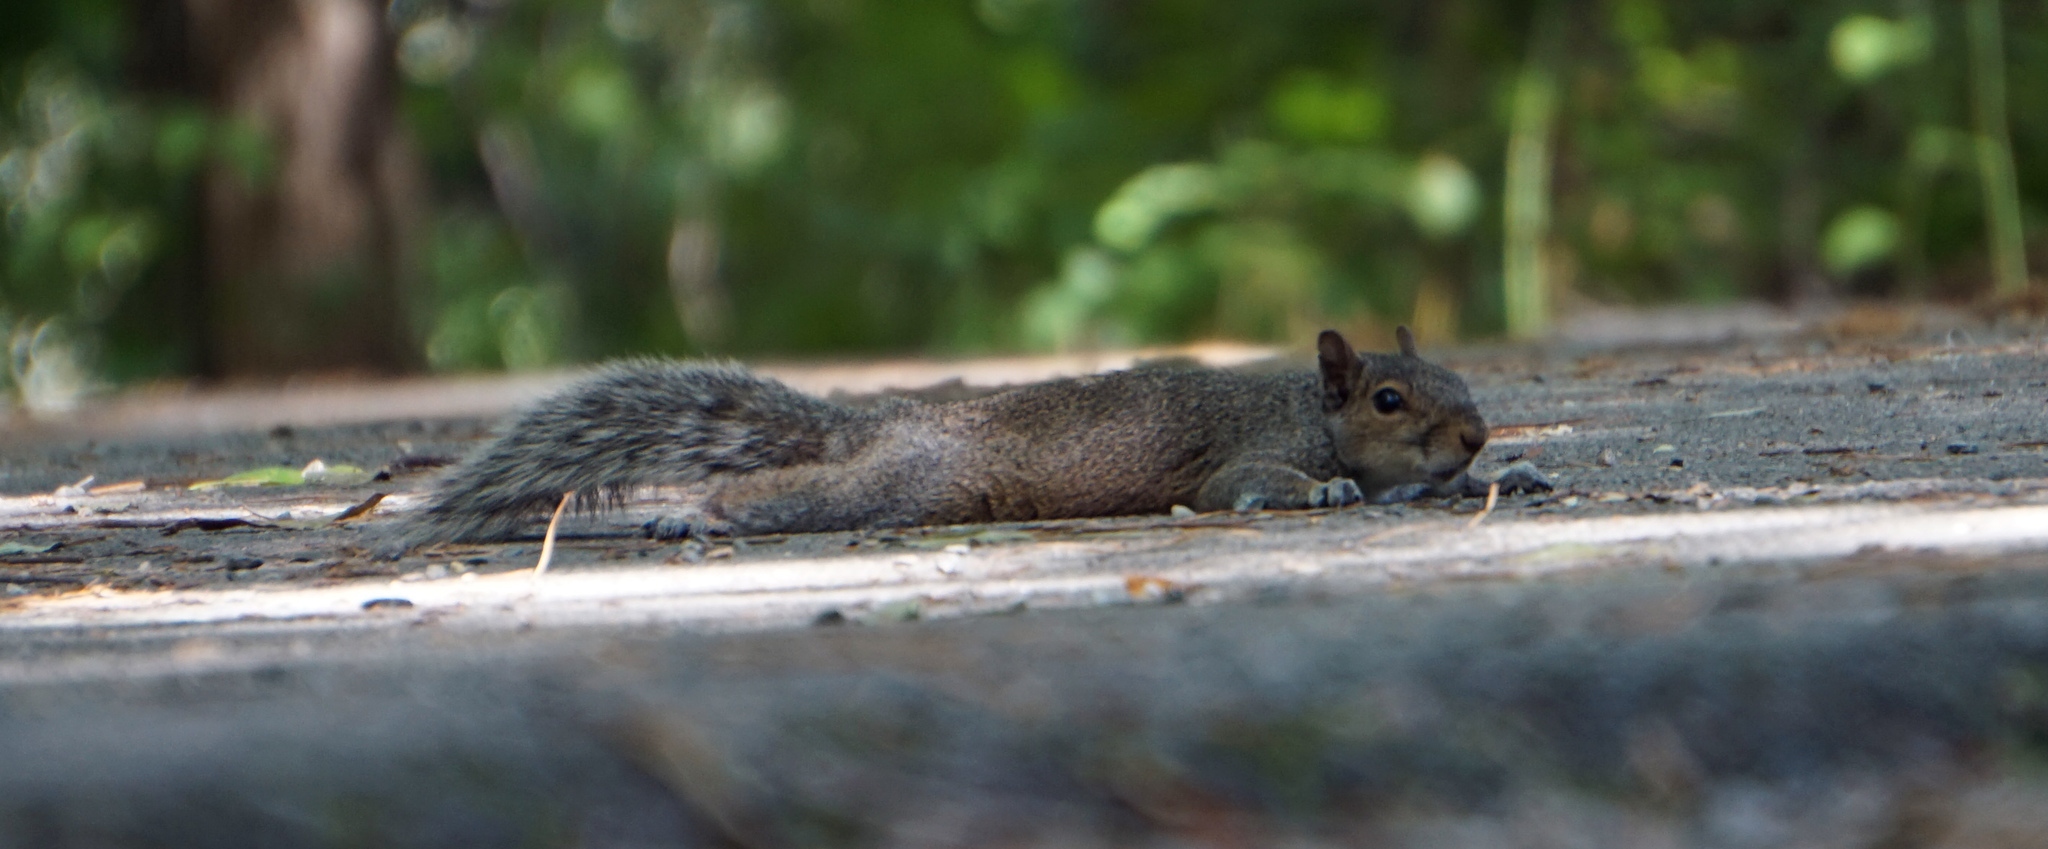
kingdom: Animalia
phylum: Chordata
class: Mammalia
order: Rodentia
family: Sciuridae
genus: Sciurus
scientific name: Sciurus carolinensis
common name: Eastern gray squirrel
